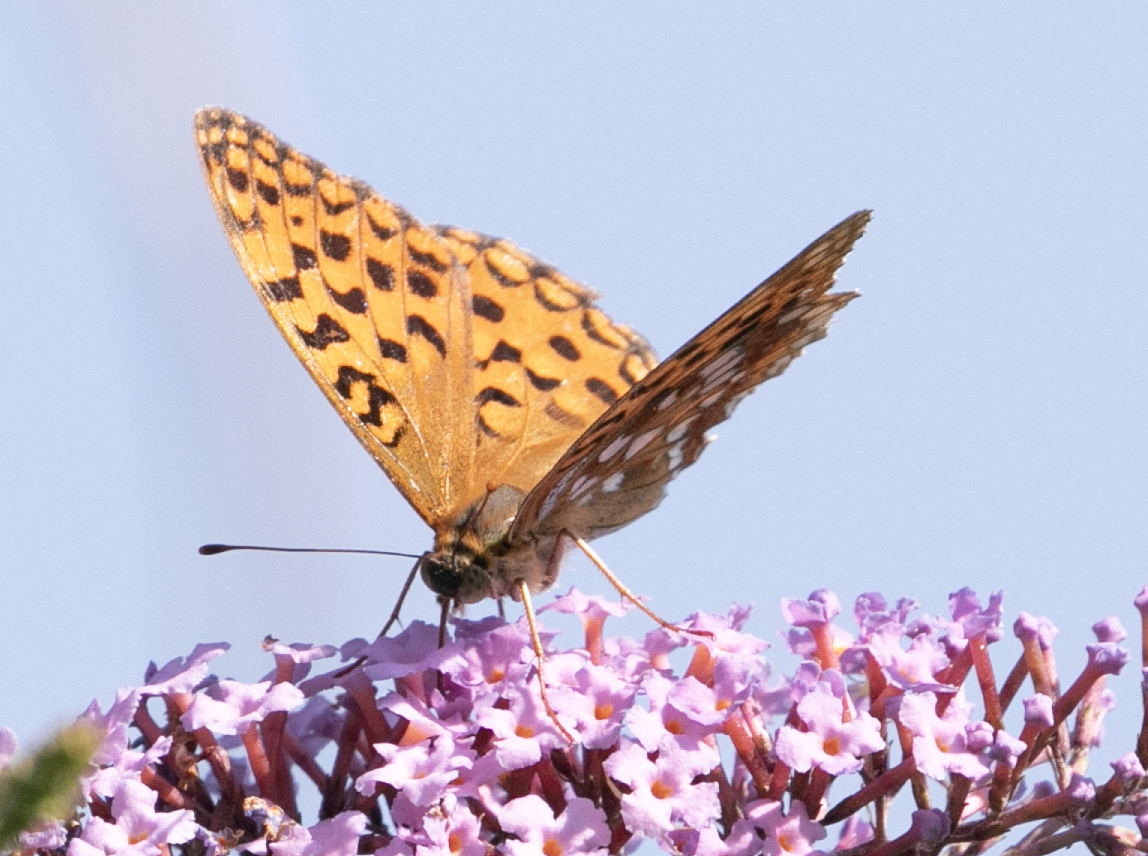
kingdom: Animalia
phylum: Arthropoda
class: Insecta
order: Lepidoptera
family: Nymphalidae
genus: Fabriciana
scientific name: Fabriciana adippe
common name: High brown fritillary
